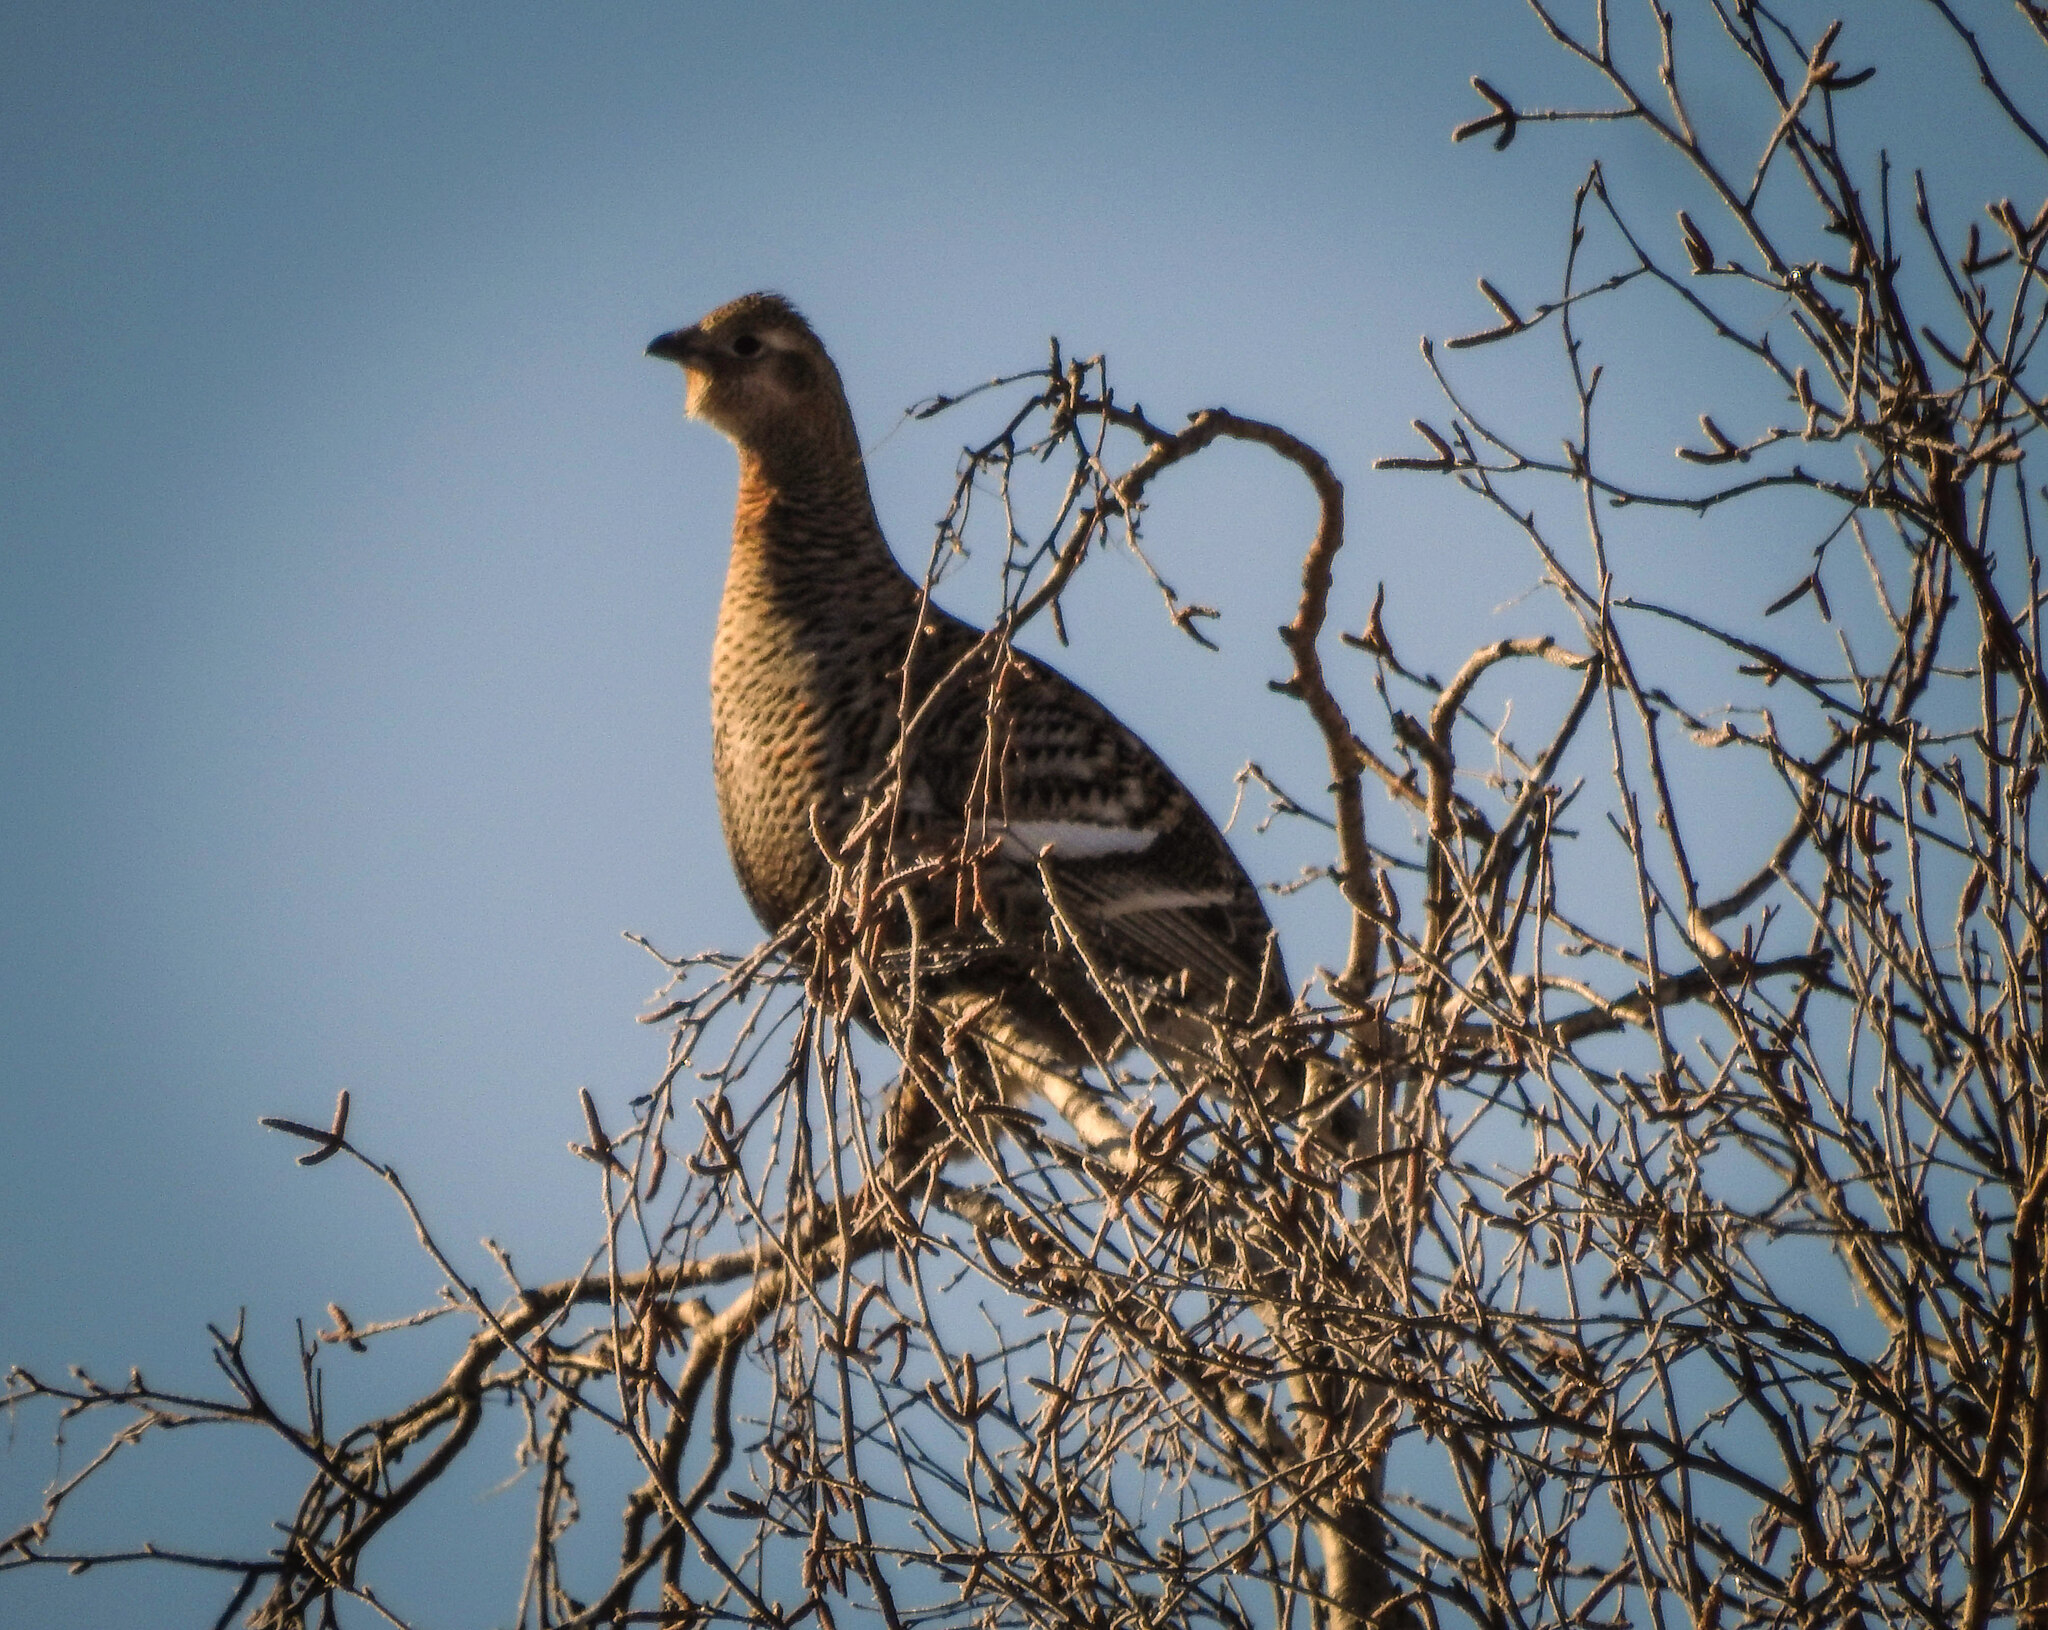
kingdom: Animalia
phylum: Chordata
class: Aves
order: Galliformes
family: Phasianidae
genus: Lyrurus
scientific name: Lyrurus tetrix
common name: Black grouse
